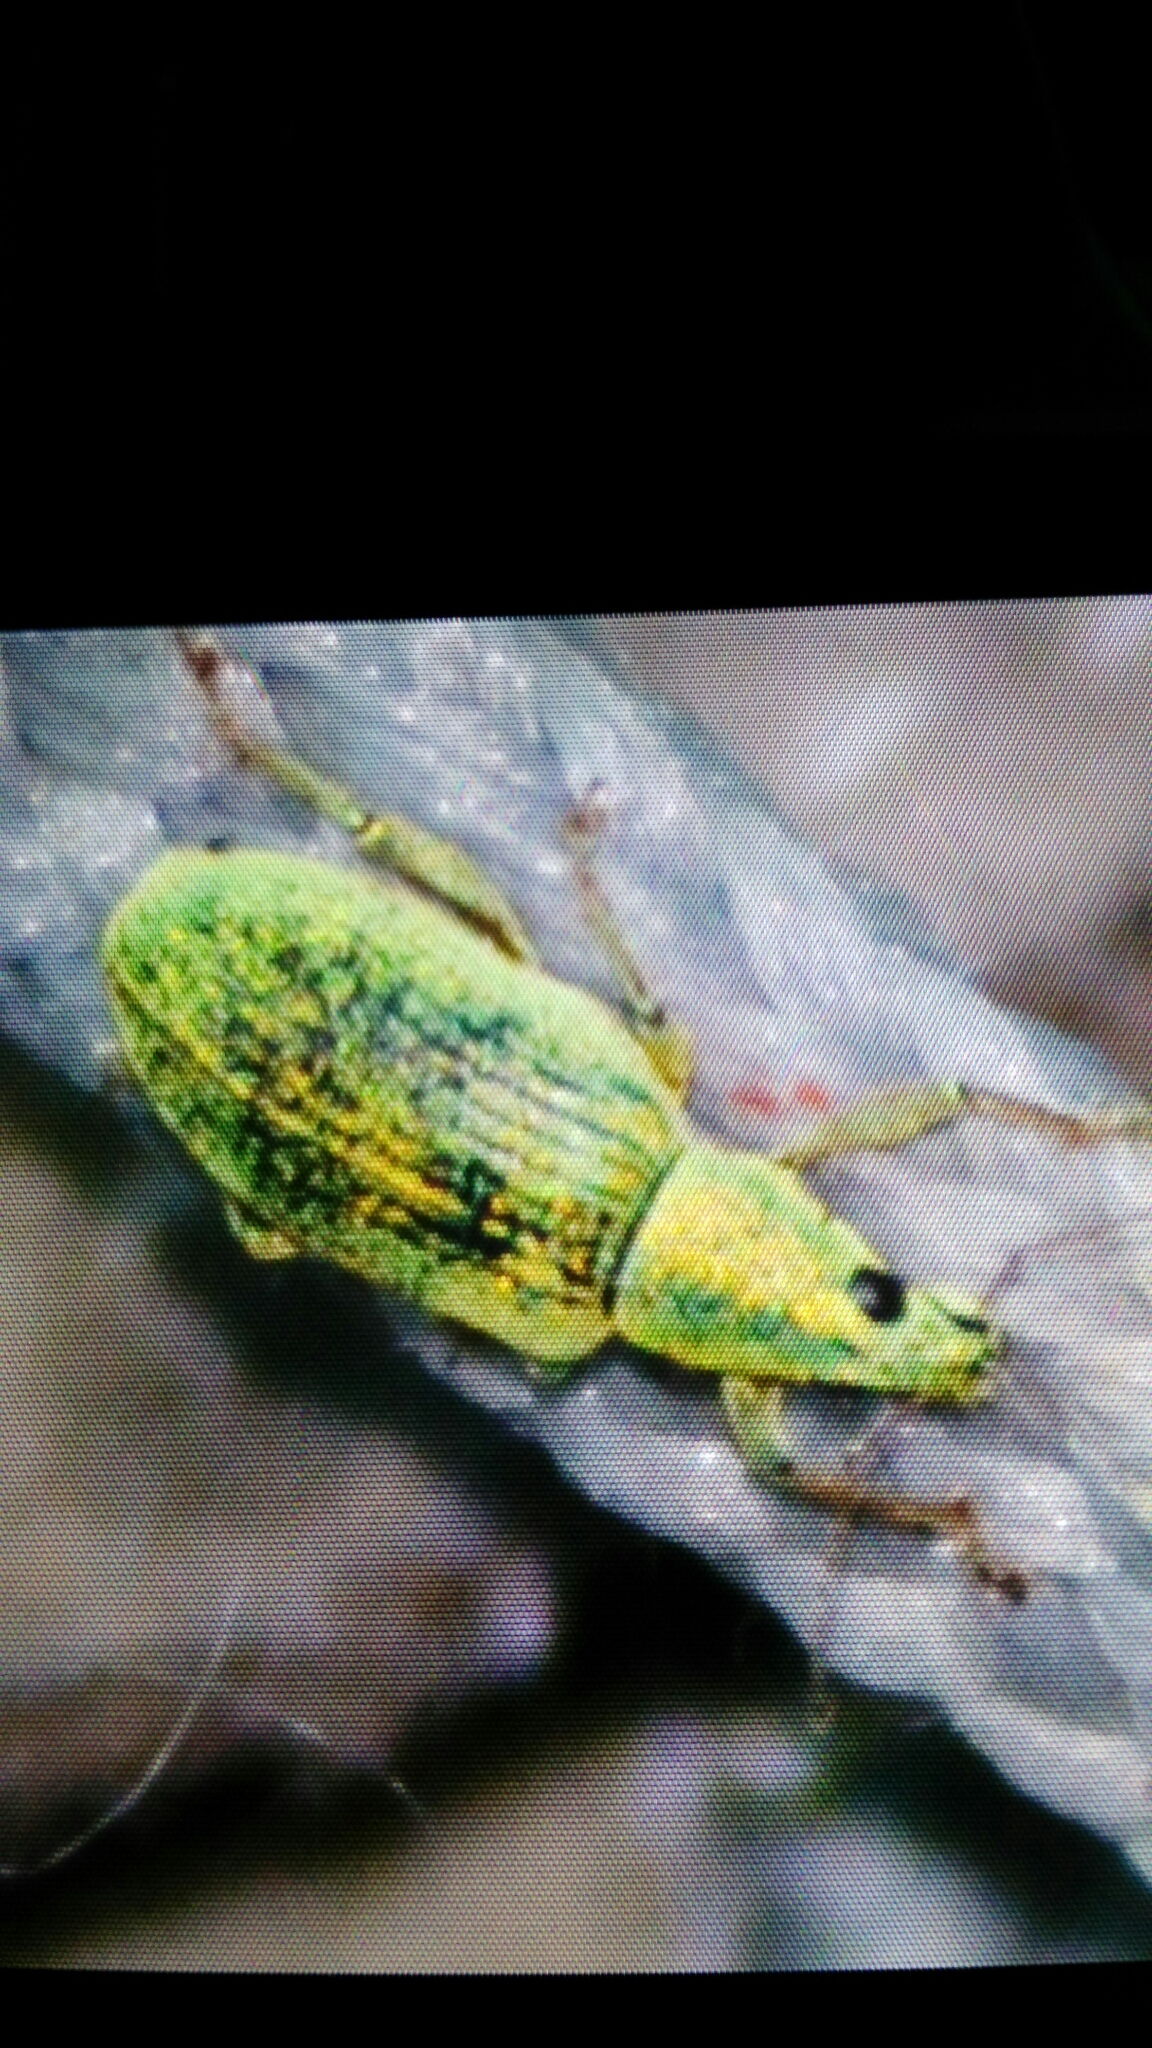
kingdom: Animalia
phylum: Arthropoda
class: Insecta
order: Coleoptera
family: Curculionidae
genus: Polydrusus
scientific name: Polydrusus formosus
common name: Weevil
